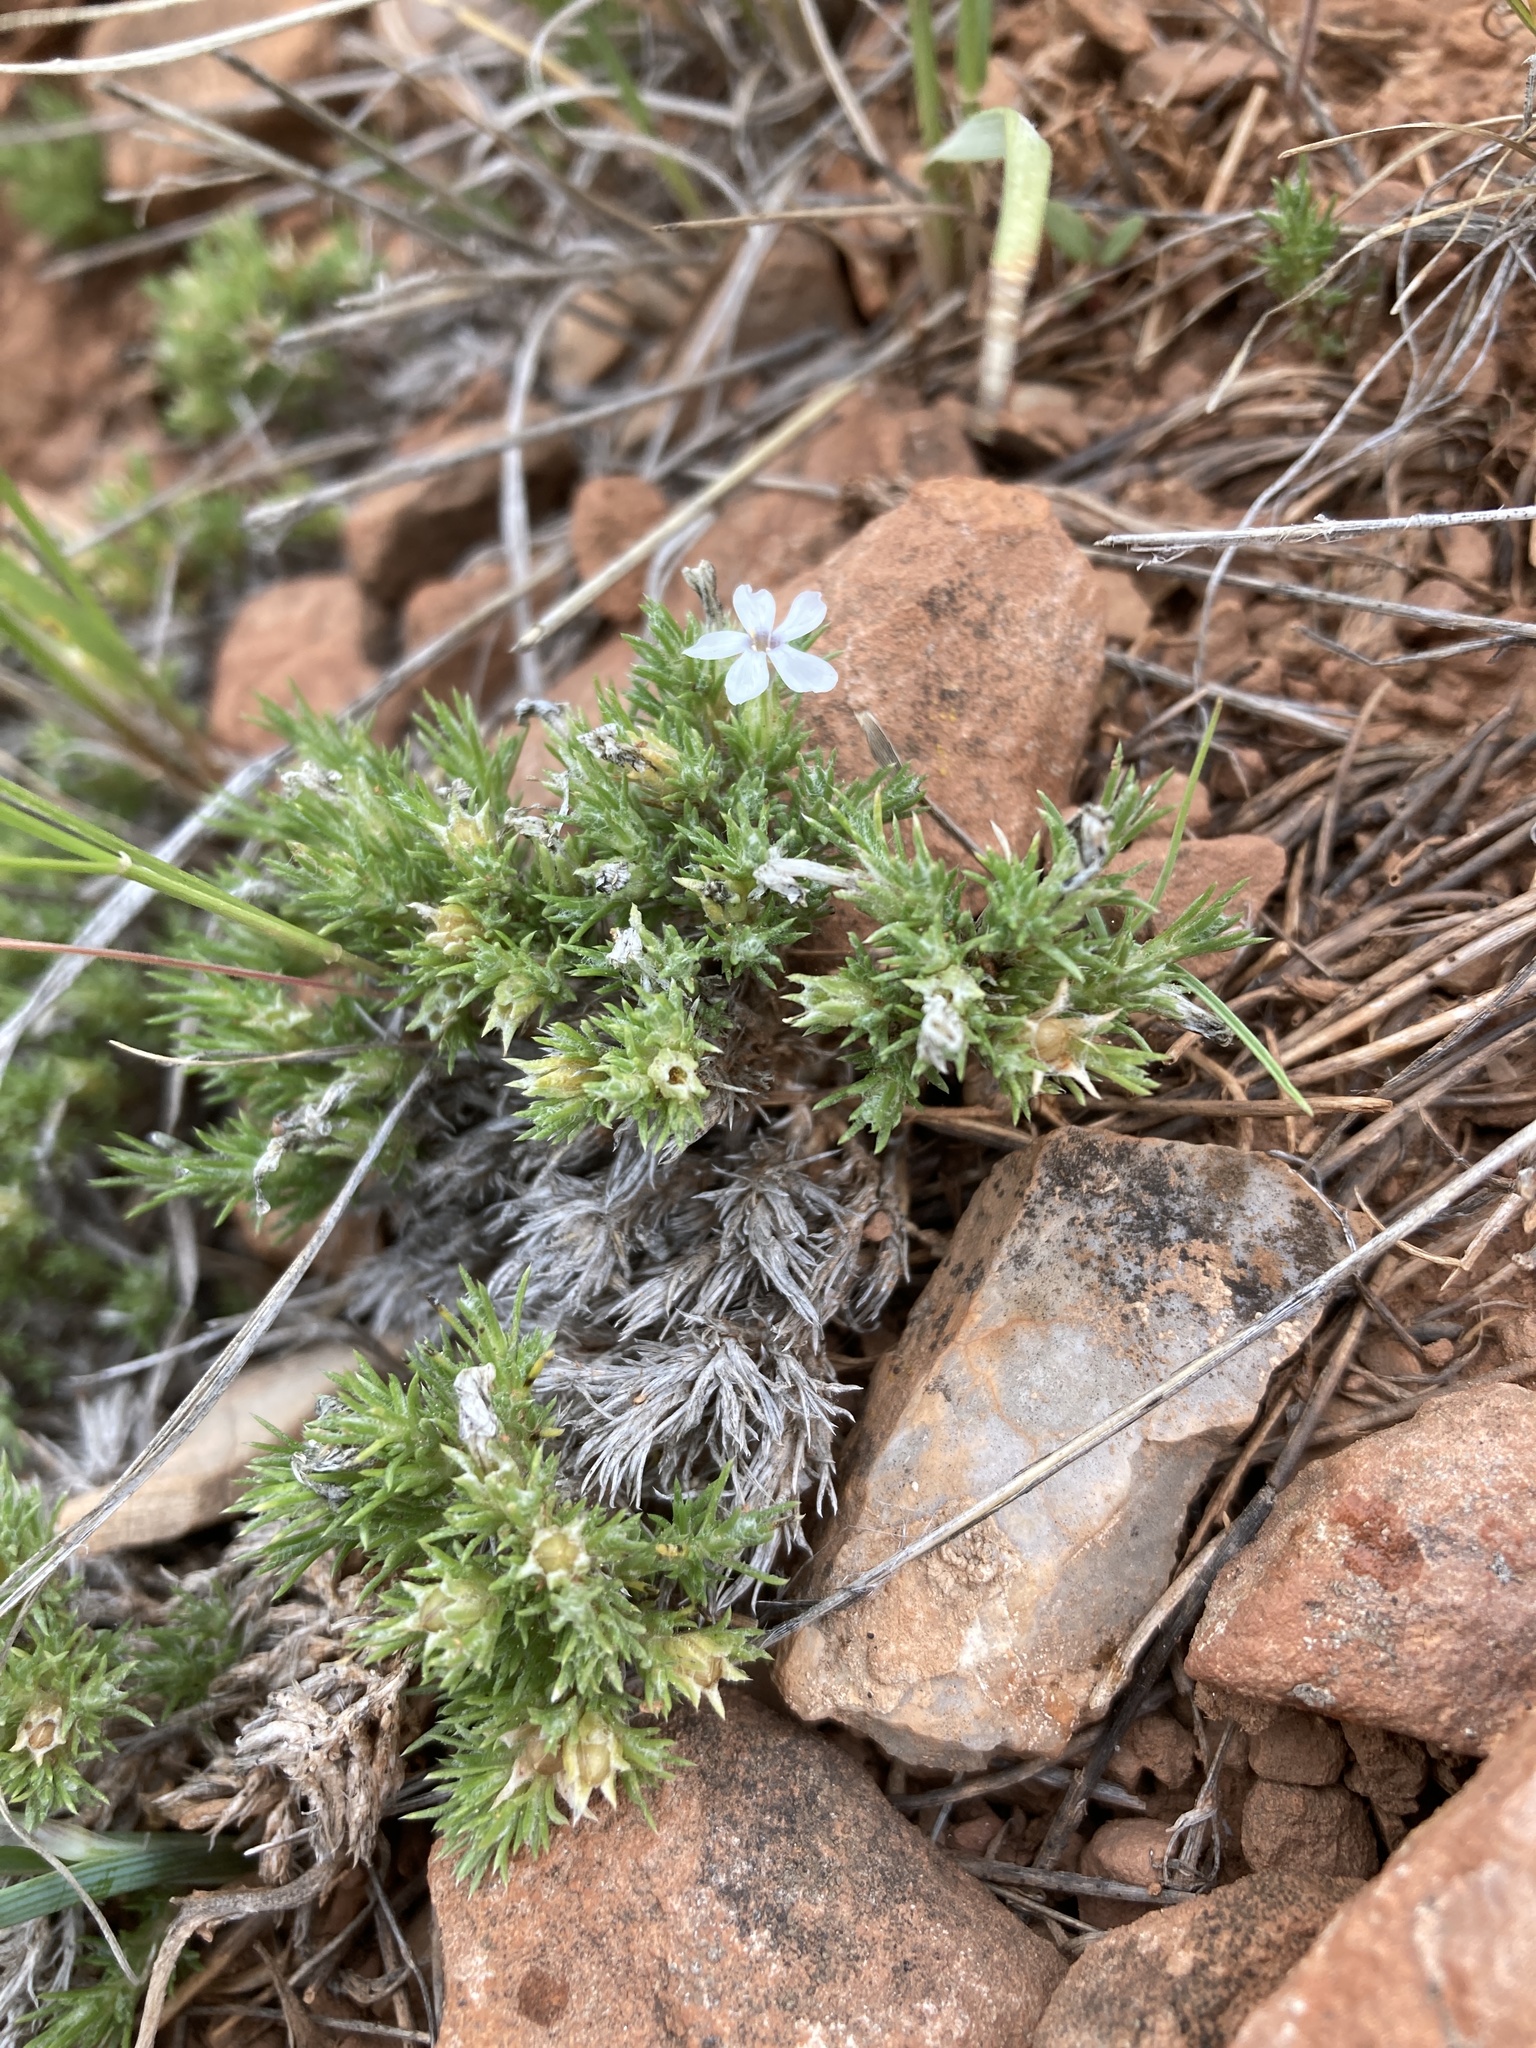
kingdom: Plantae
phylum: Tracheophyta
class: Magnoliopsida
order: Ericales
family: Polemoniaceae
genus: Phlox
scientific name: Phlox hoodii
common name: Moss phlox
